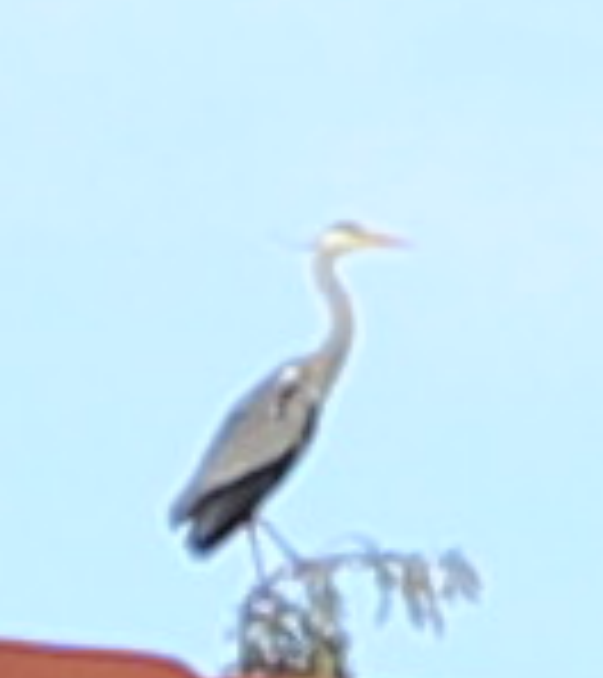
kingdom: Animalia
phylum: Chordata
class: Aves
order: Pelecaniformes
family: Ardeidae
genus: Ardea
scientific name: Ardea cinerea
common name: Grey heron
